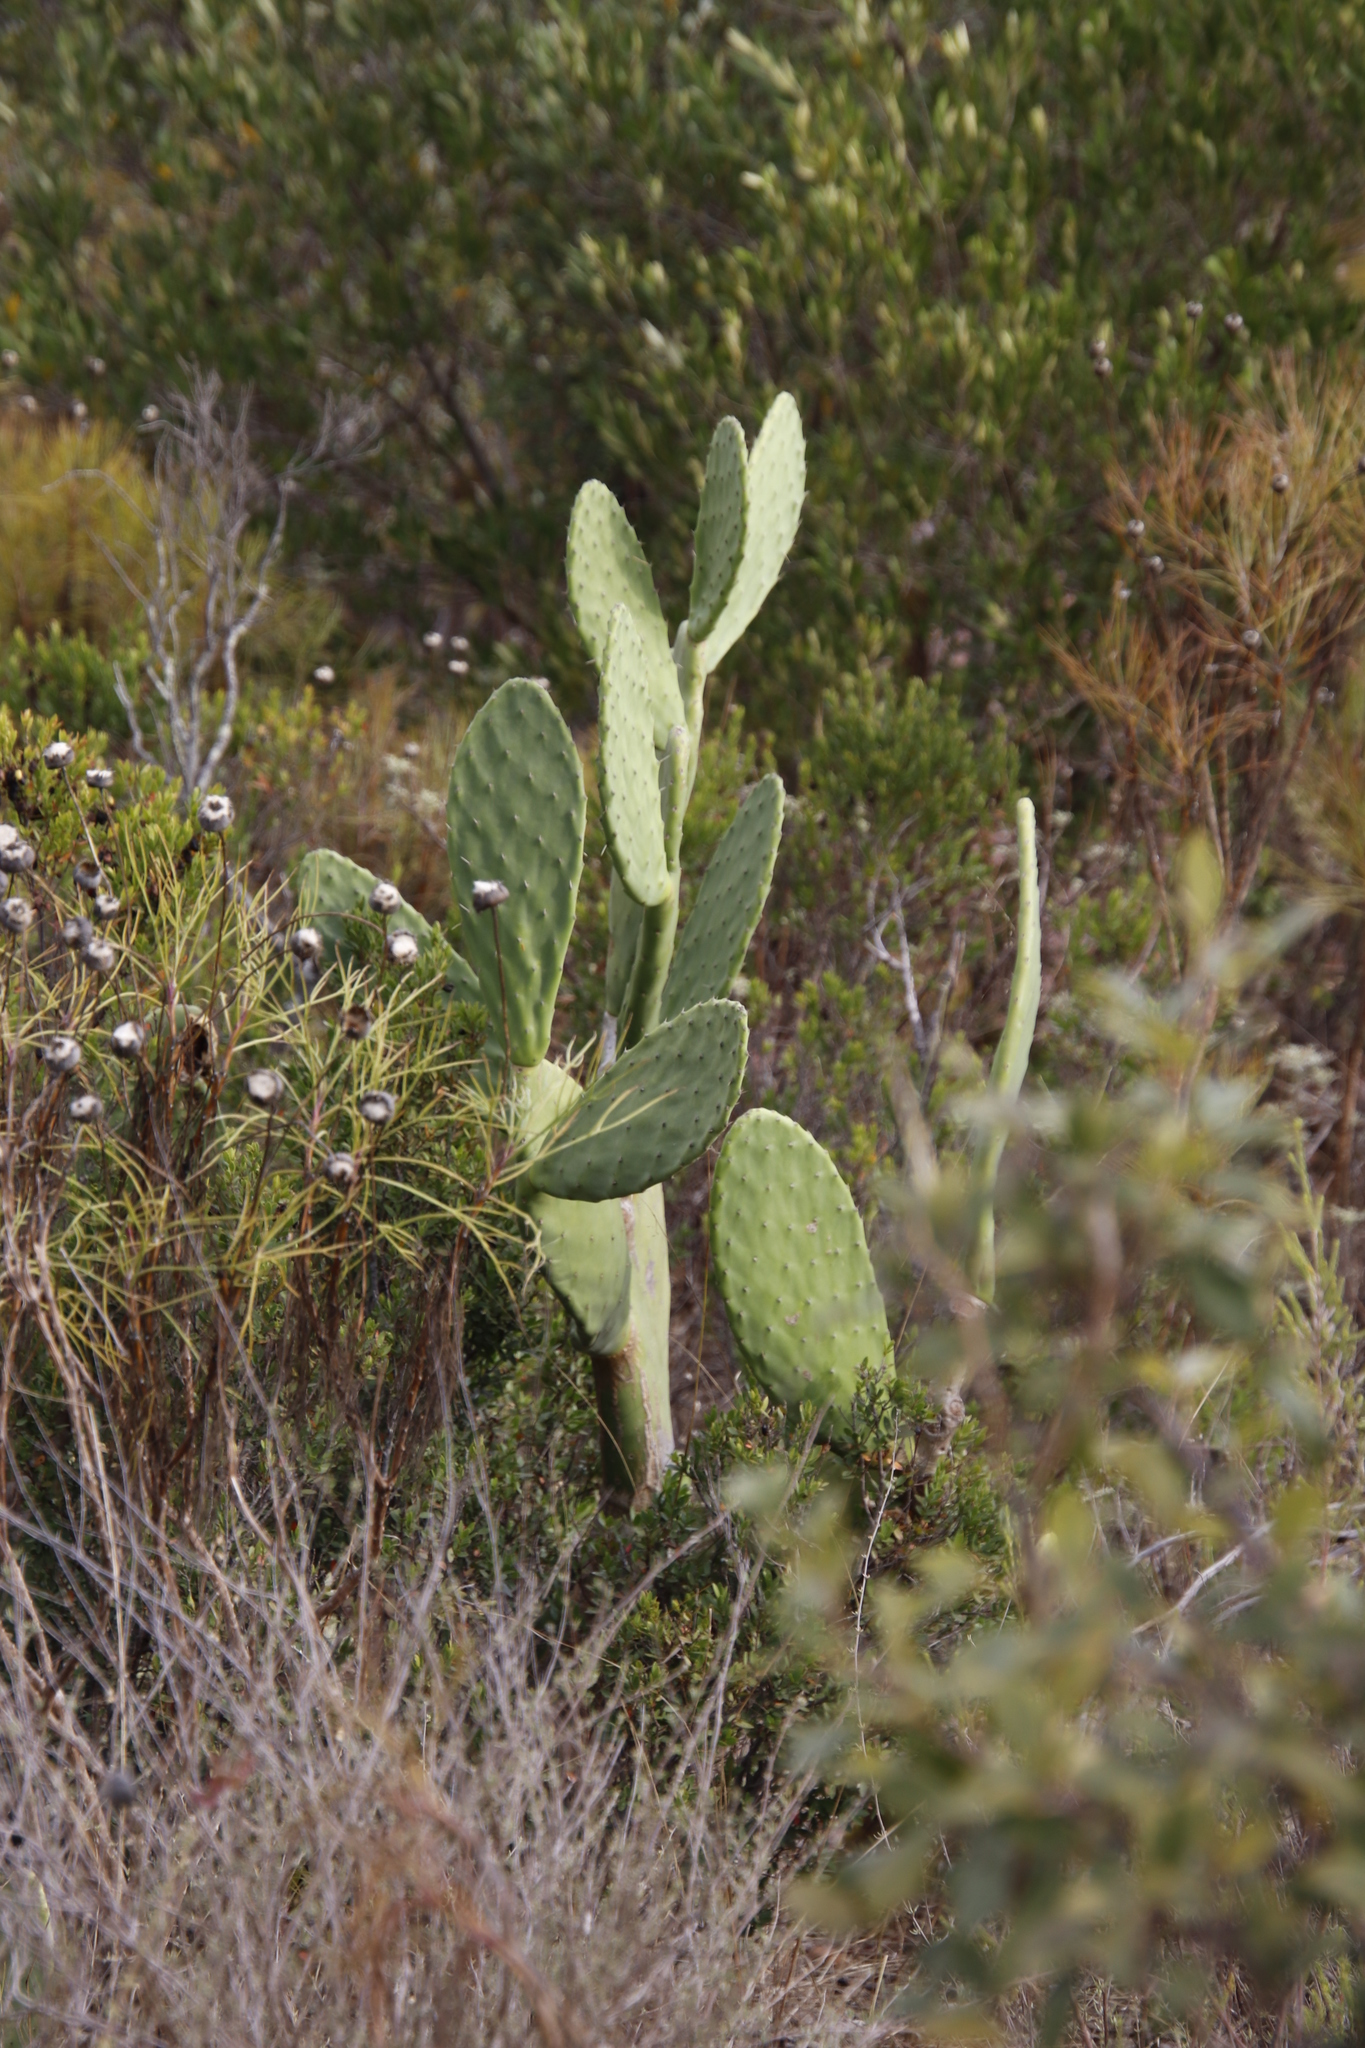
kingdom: Plantae
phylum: Tracheophyta
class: Magnoliopsida
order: Caryophyllales
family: Cactaceae
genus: Opuntia
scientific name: Opuntia ficus-indica
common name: Barbary fig
